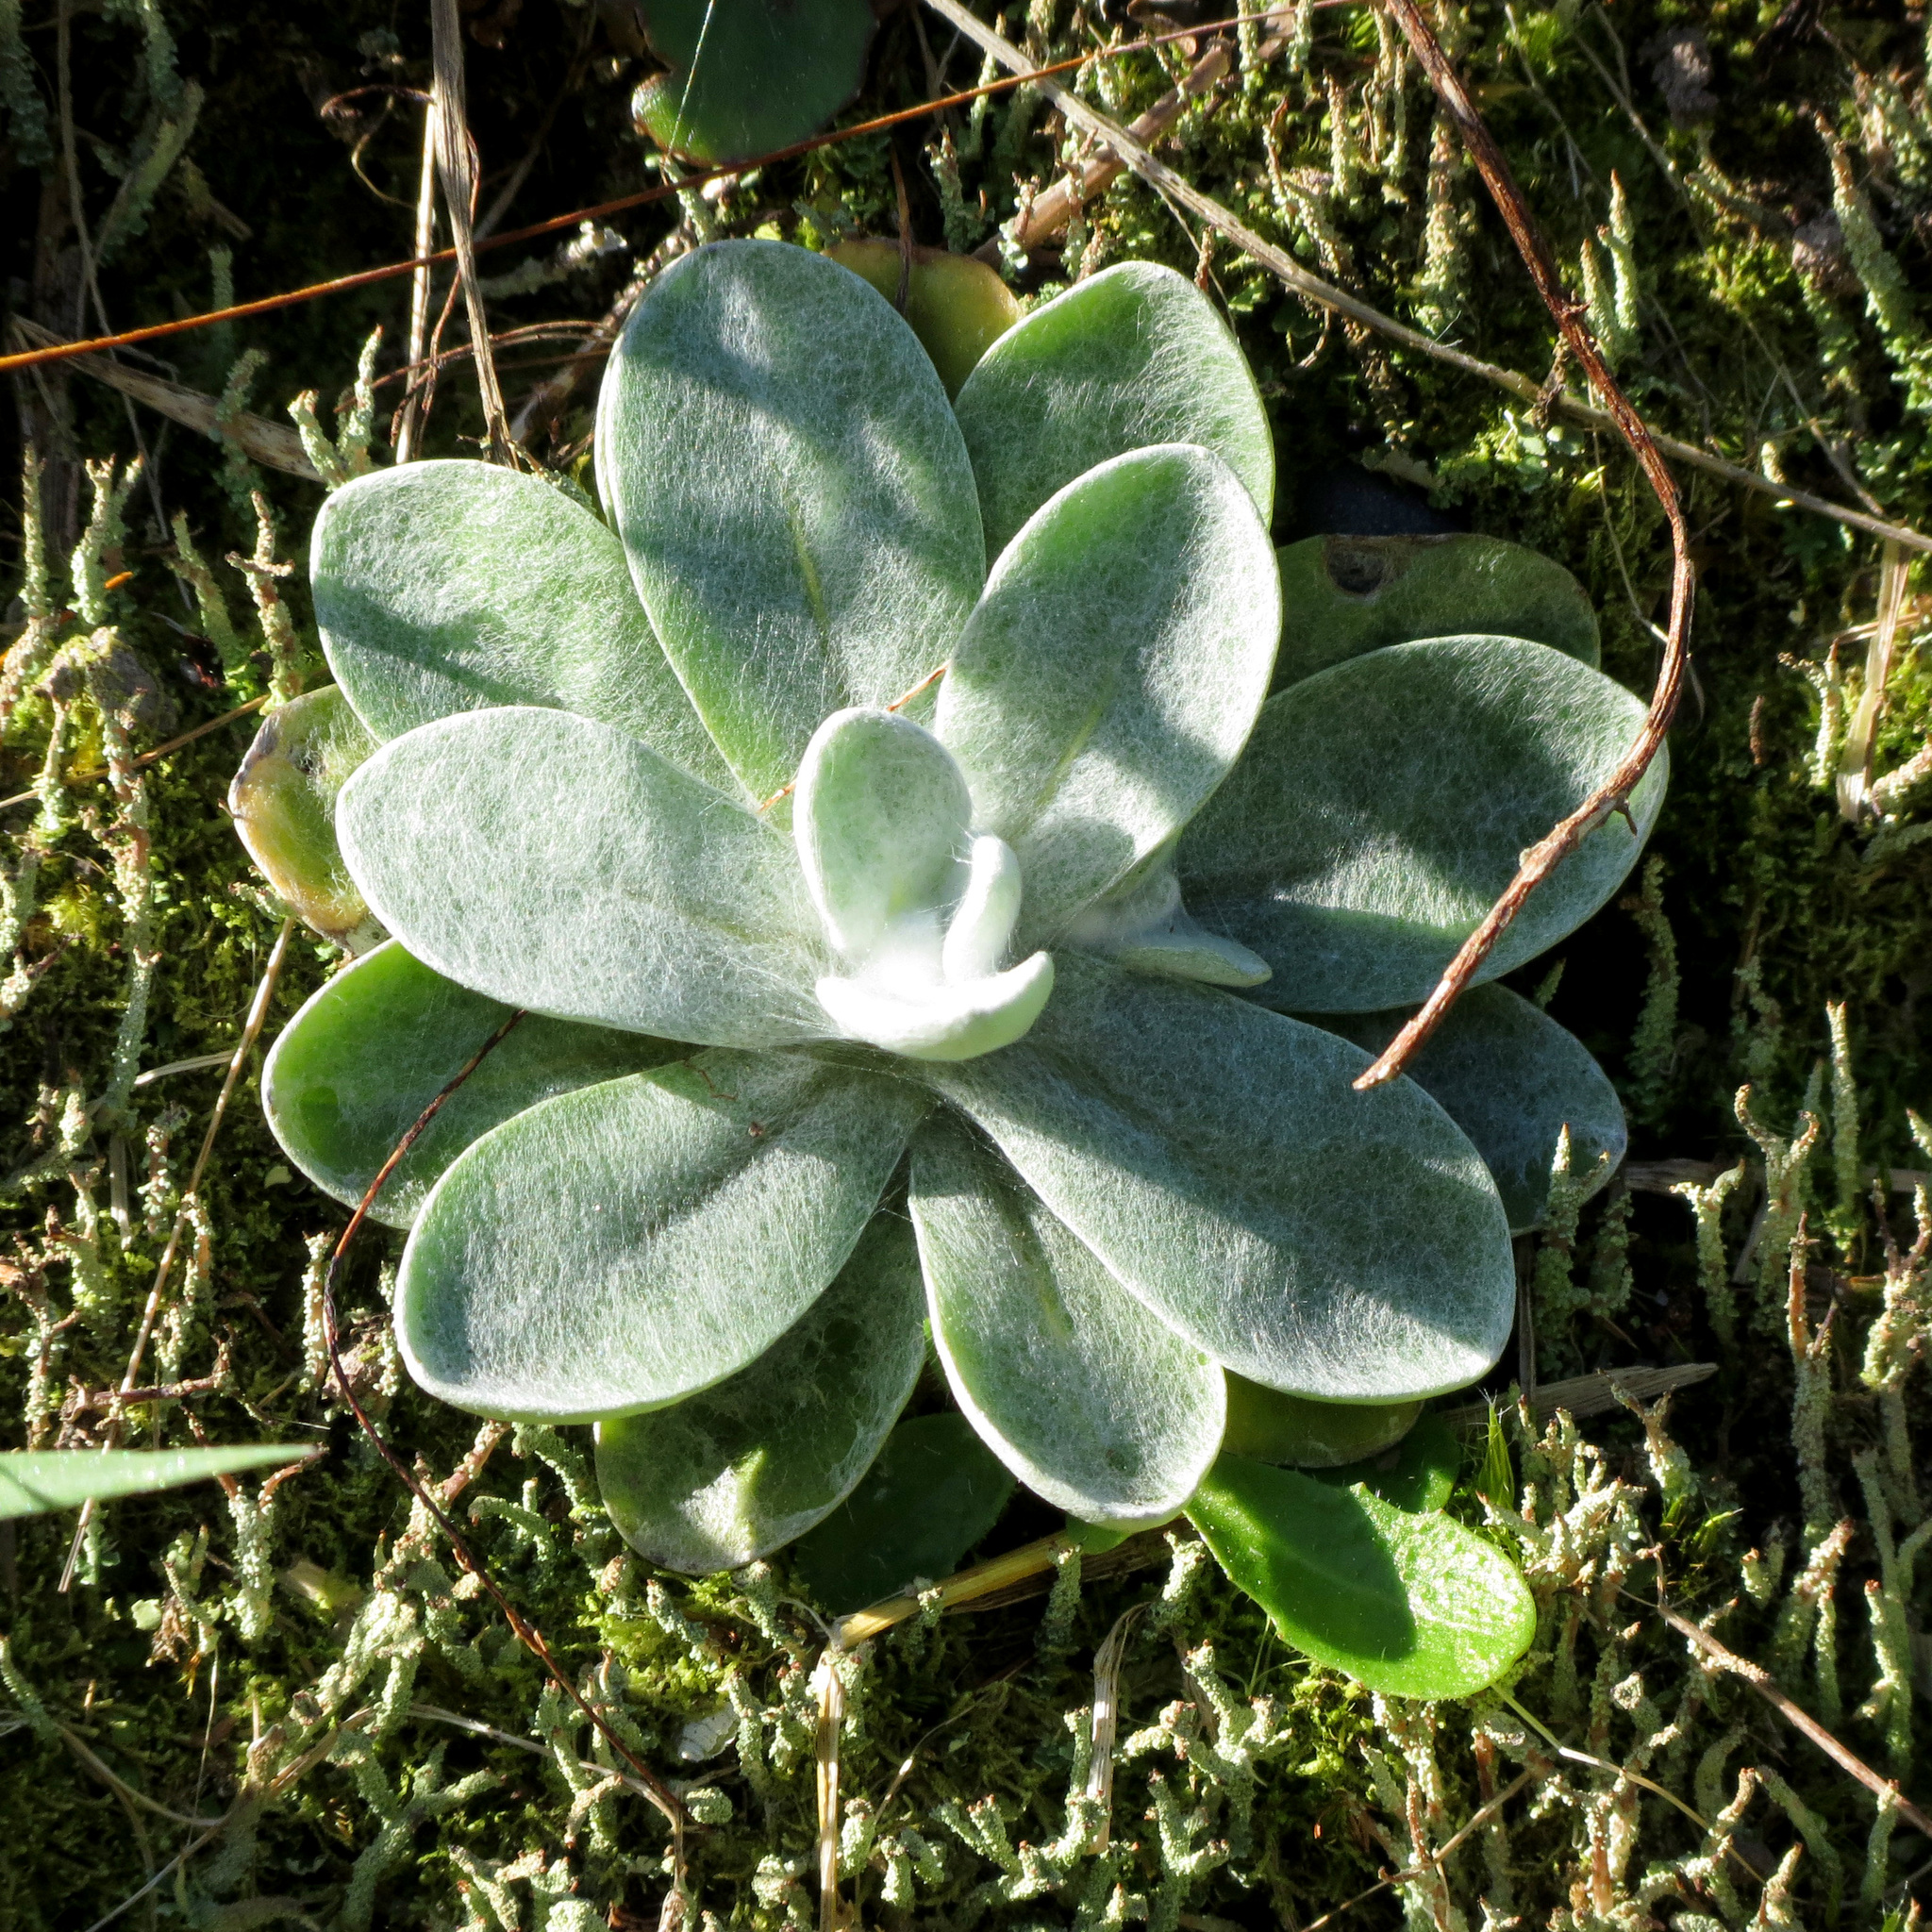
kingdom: Plantae
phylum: Tracheophyta
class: Magnoliopsida
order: Asterales
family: Asteraceae
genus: Helichrysum
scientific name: Helichrysum luteoalbum
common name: Daisy
